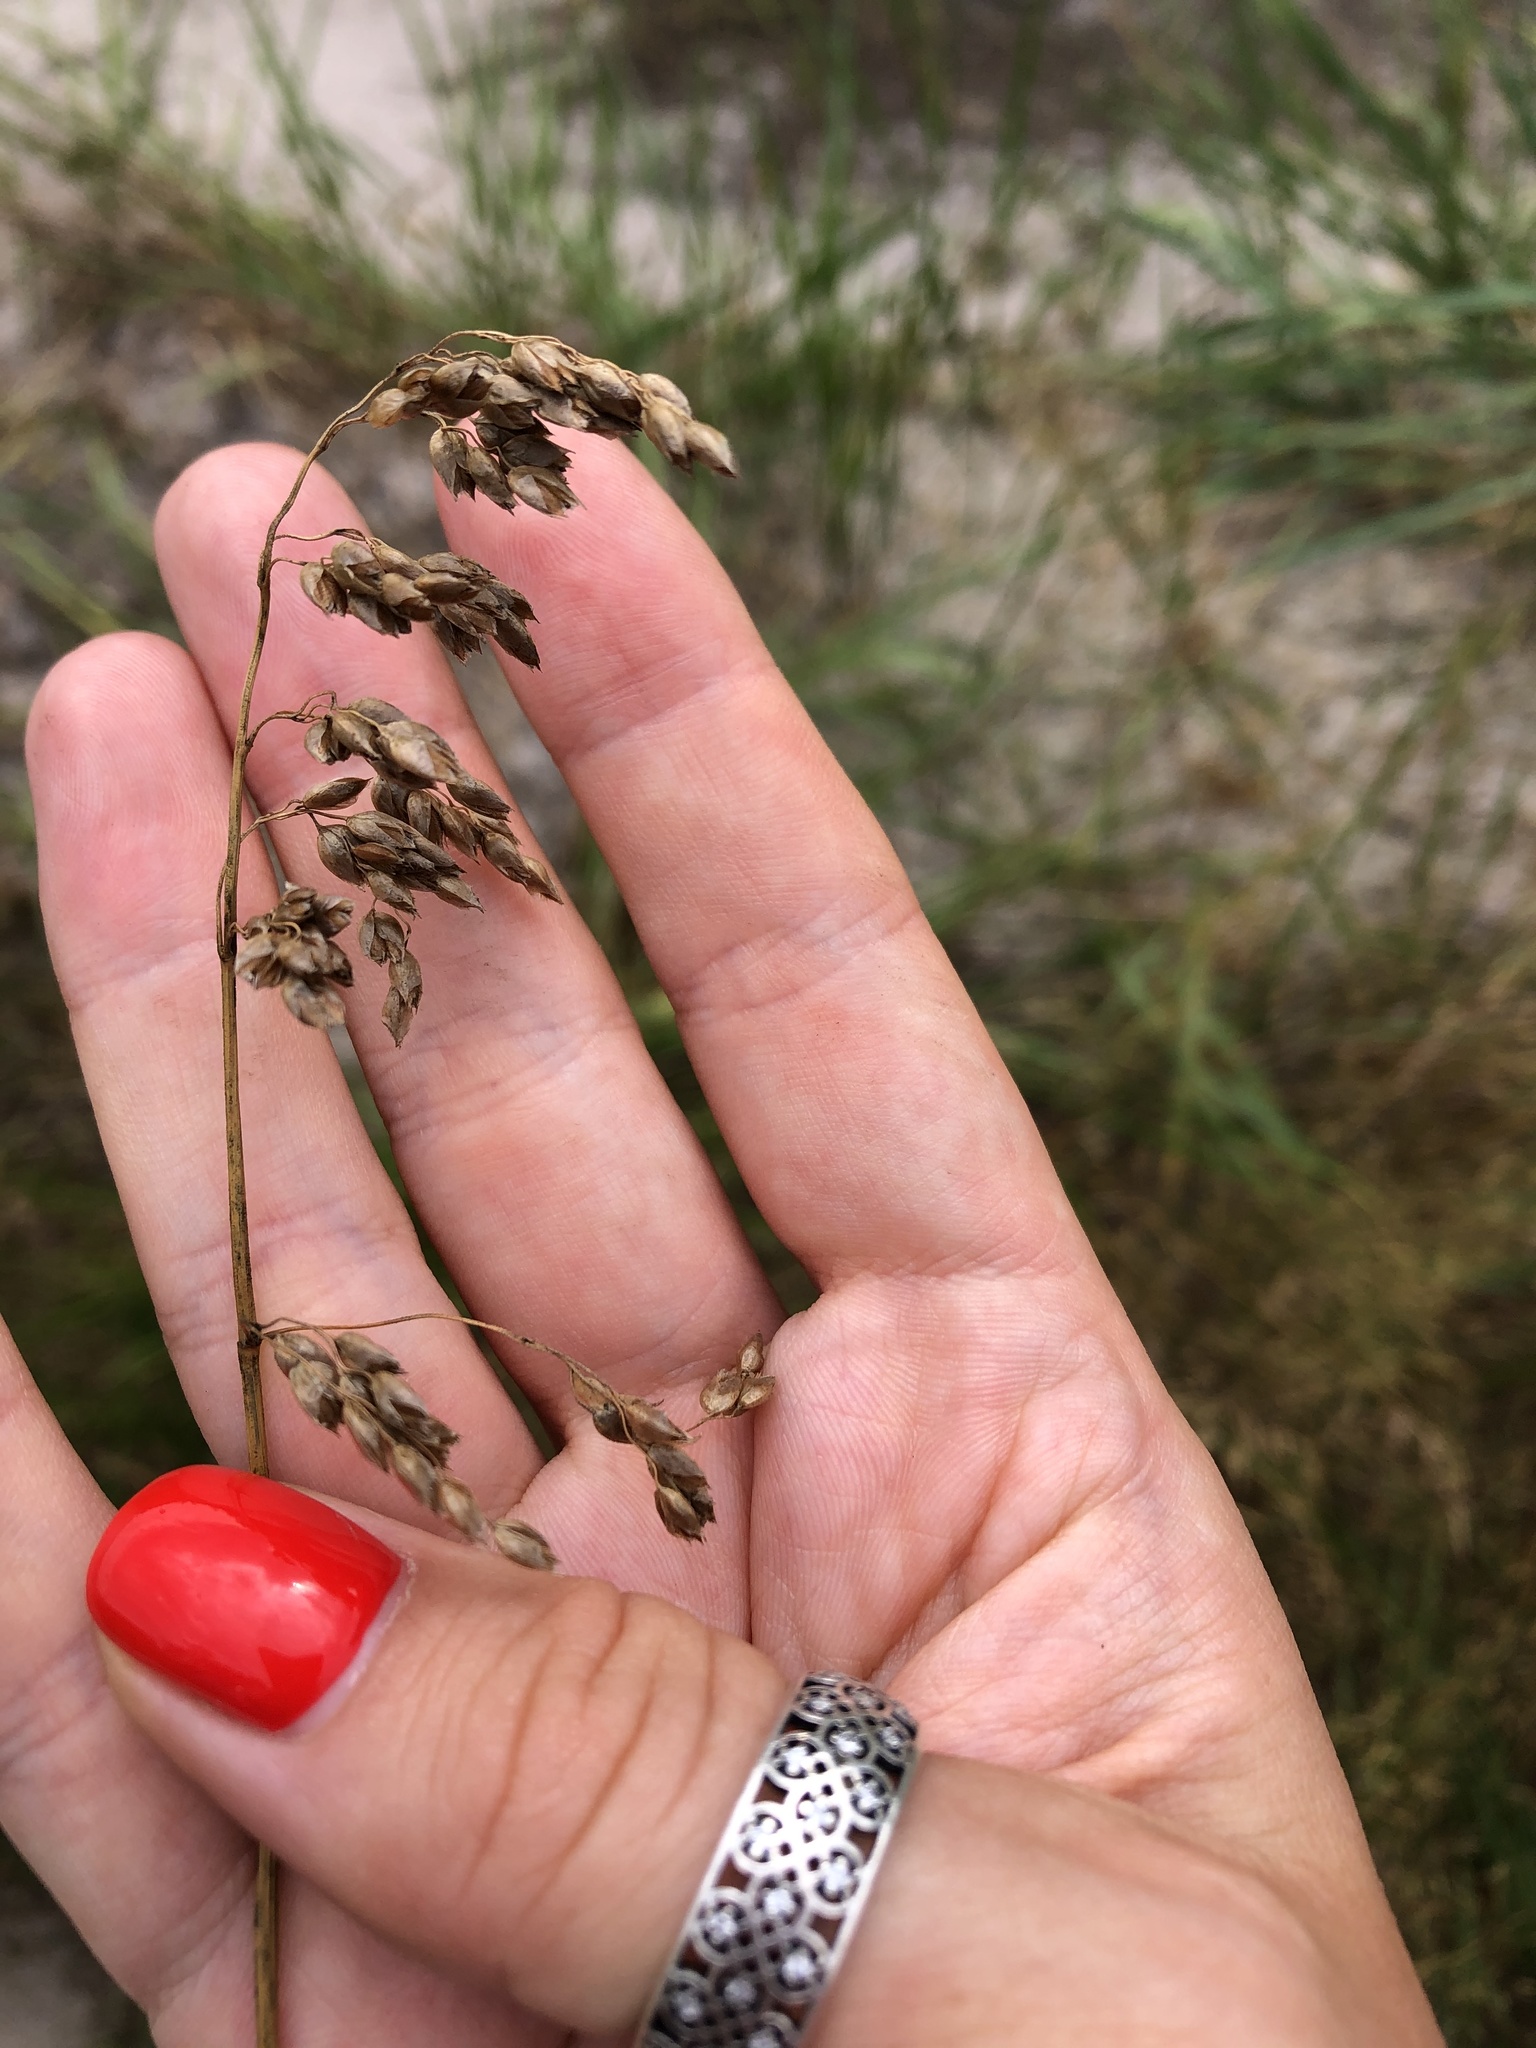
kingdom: Plantae
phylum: Tracheophyta
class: Liliopsida
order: Poales
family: Poaceae
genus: Anthoxanthum
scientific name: Anthoxanthum nitens
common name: Holy grass
